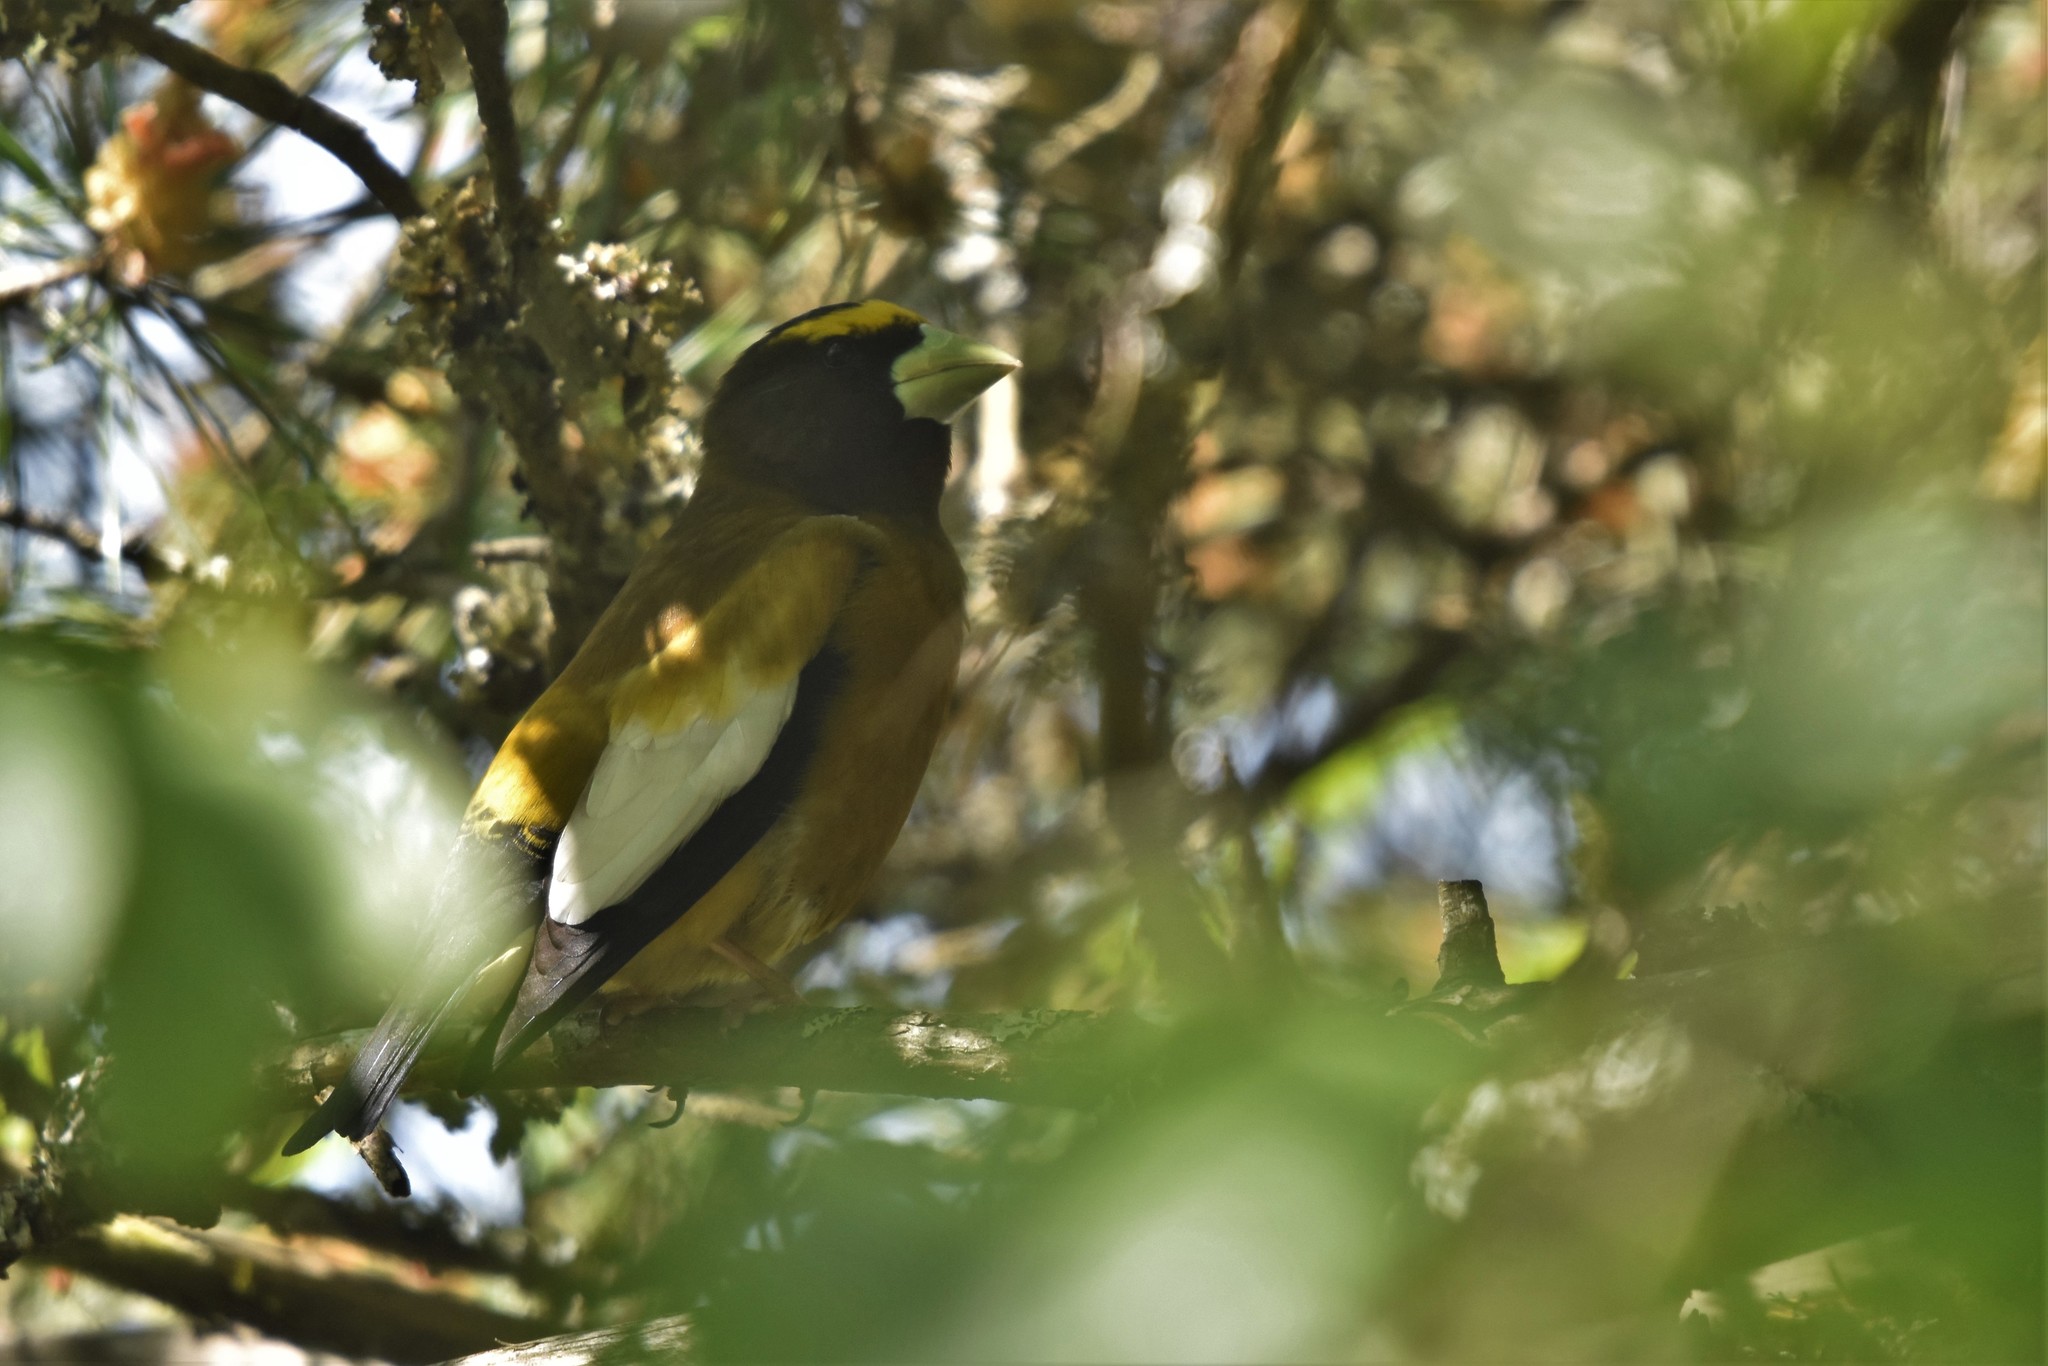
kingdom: Animalia
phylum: Chordata
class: Aves
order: Passeriformes
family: Fringillidae
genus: Hesperiphona
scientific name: Hesperiphona vespertina
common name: Evening grosbeak
